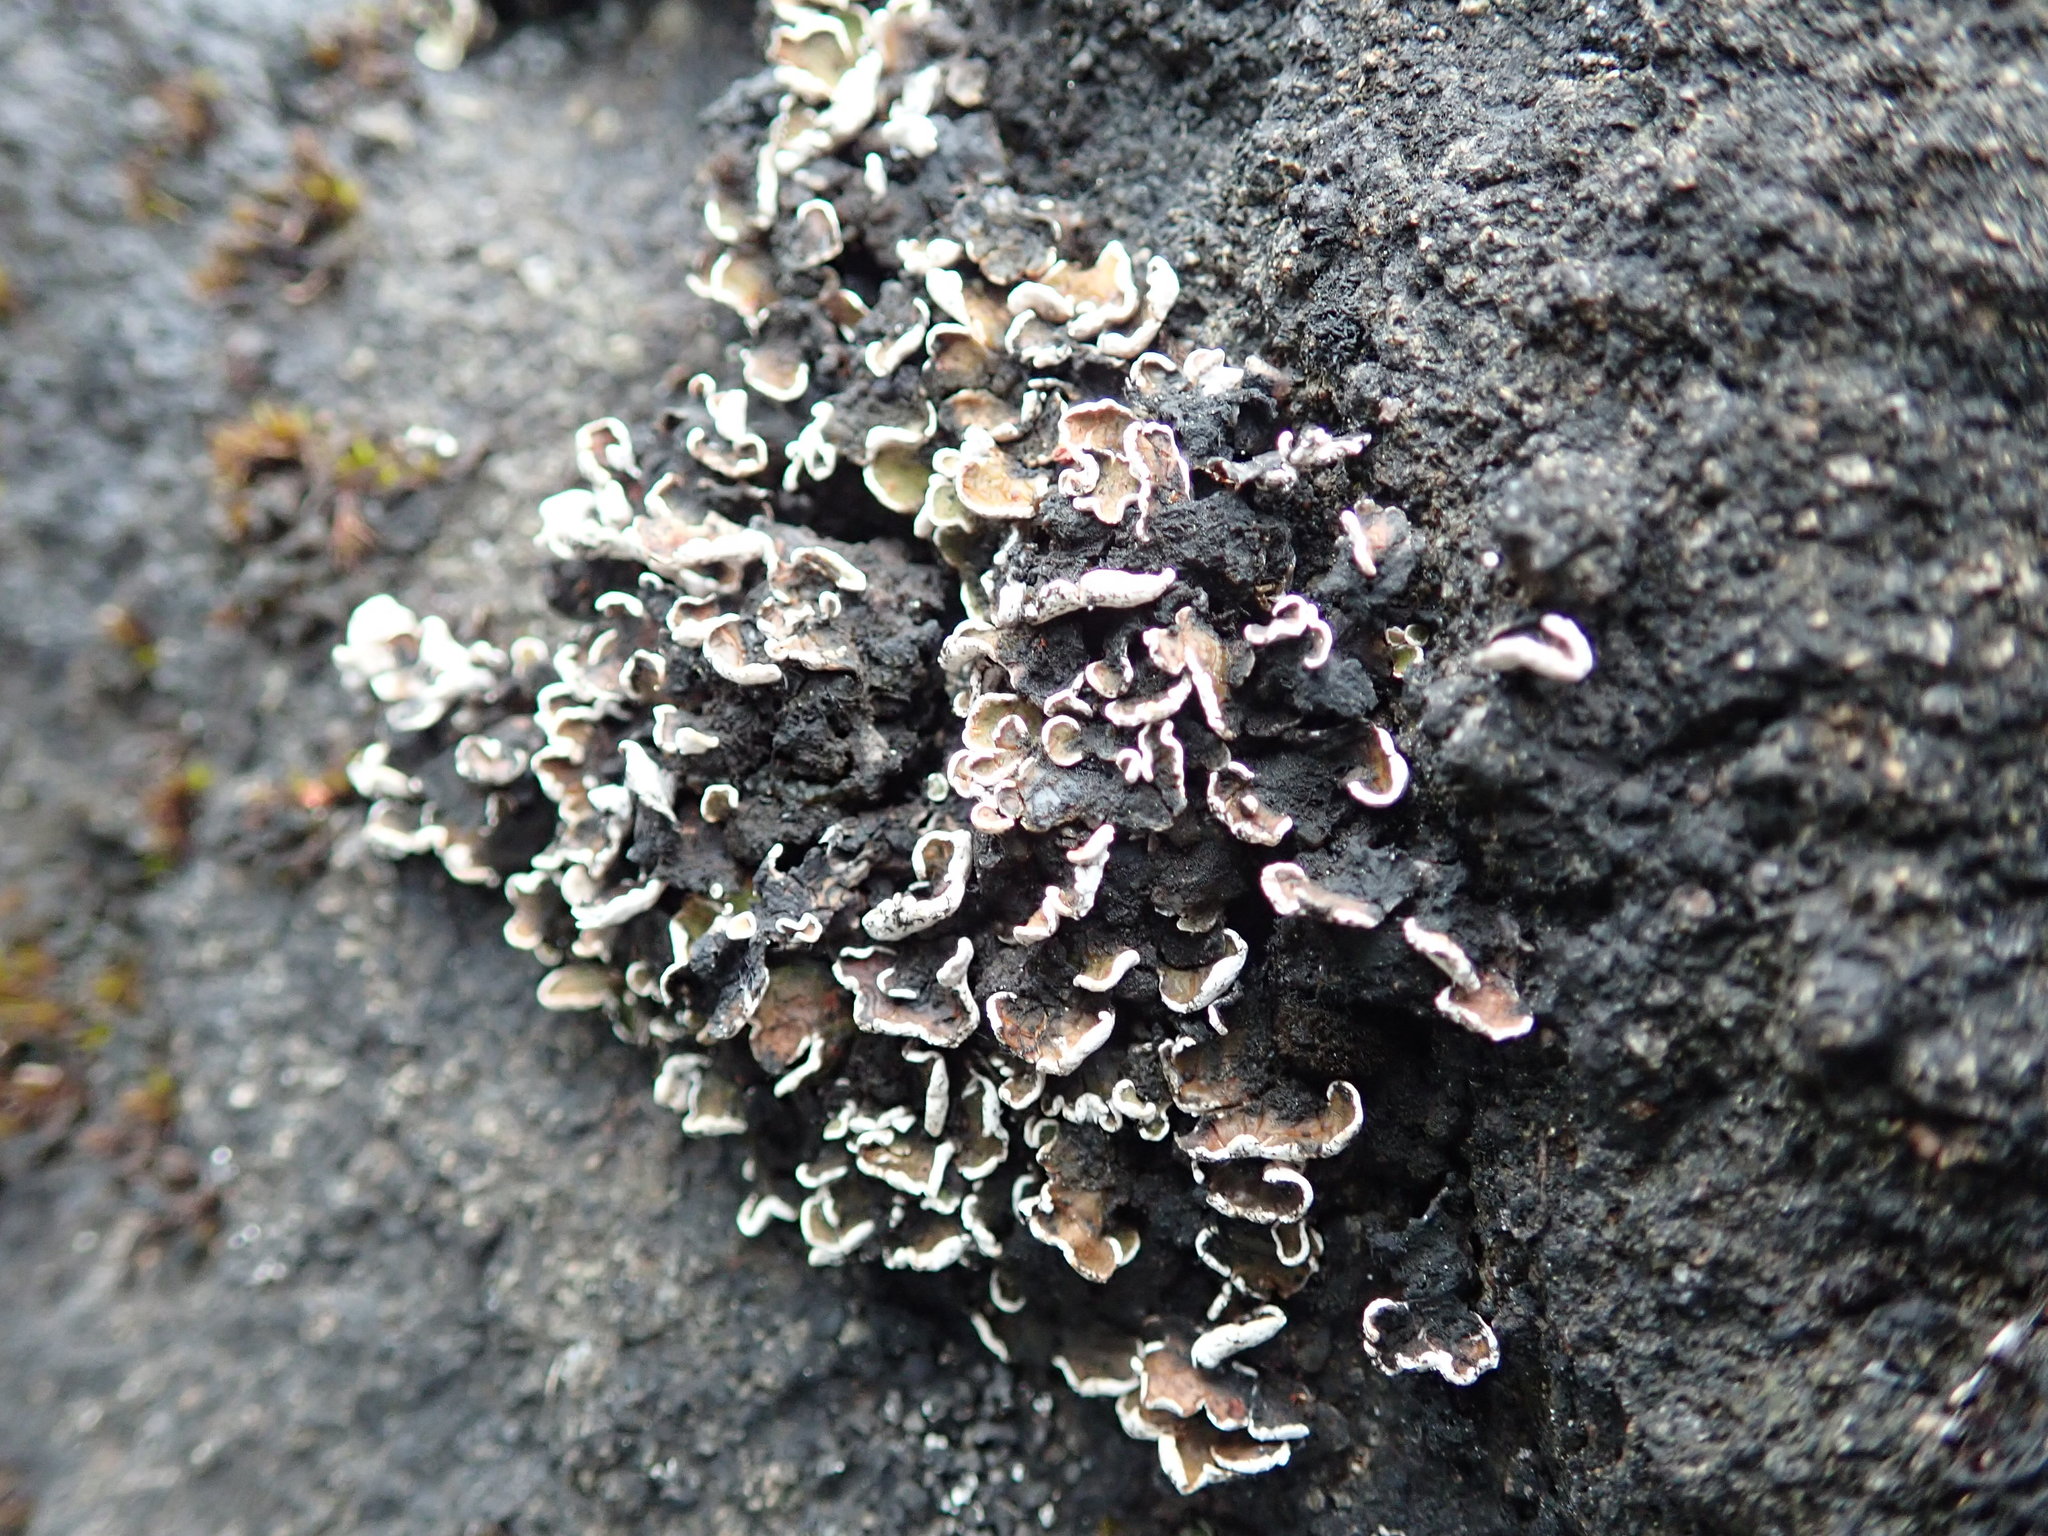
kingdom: Fungi
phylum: Ascomycota
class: Lecanoromycetes
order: Lecanorales
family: Psoraceae
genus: Psora
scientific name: Psora nipponica
